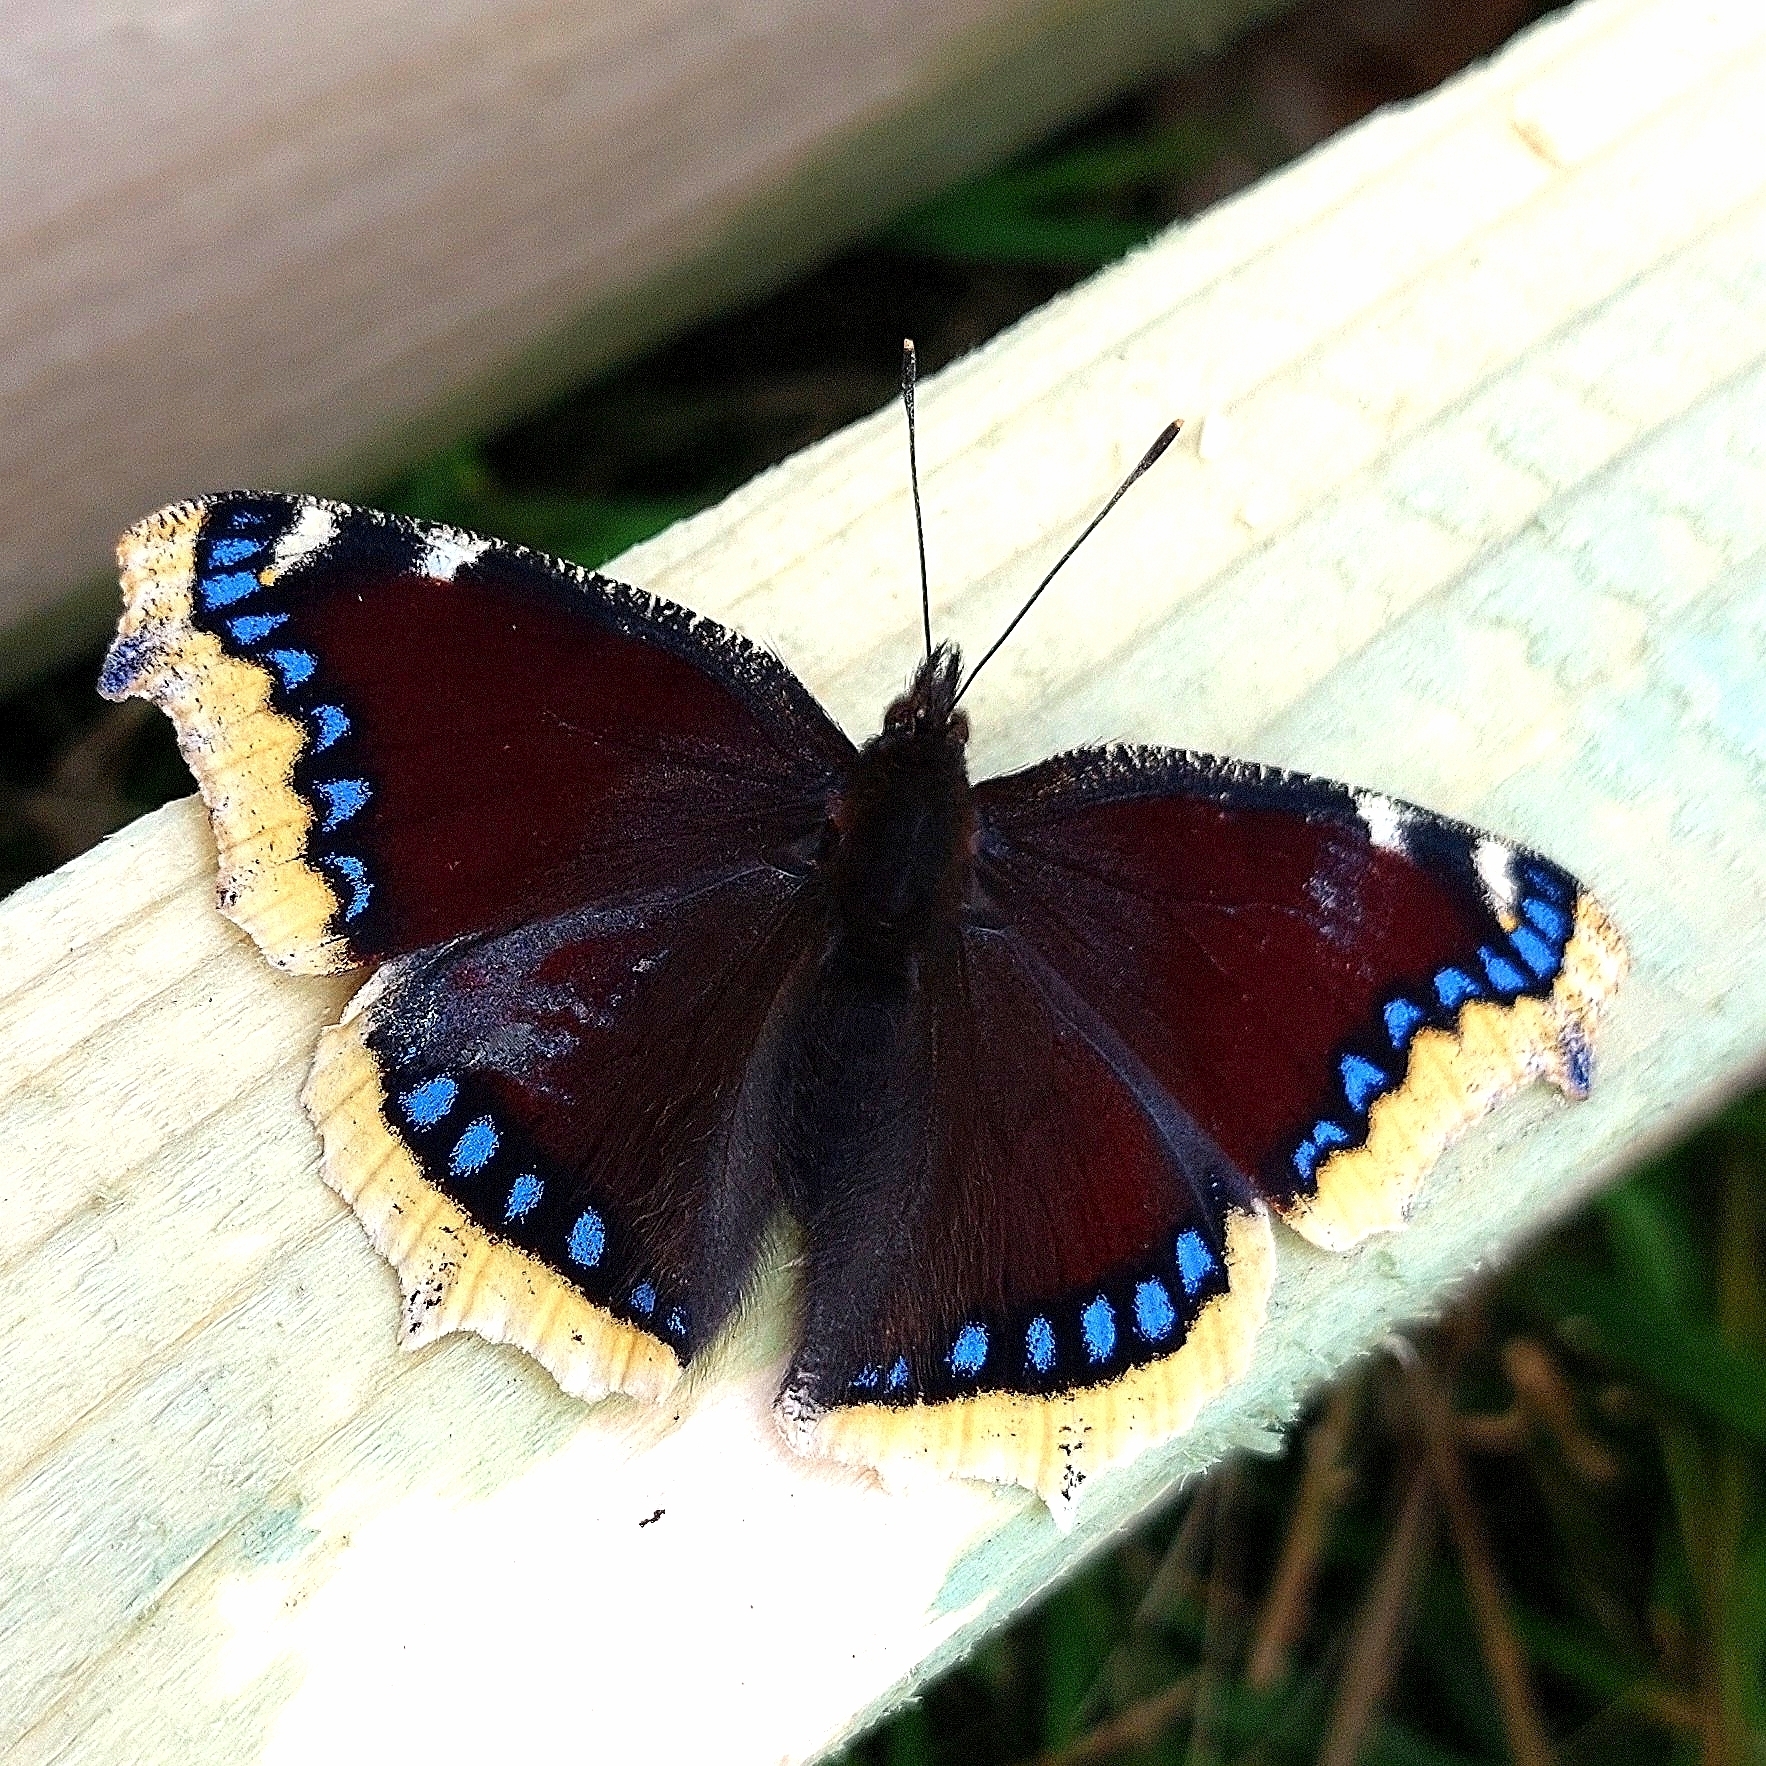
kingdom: Animalia
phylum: Arthropoda
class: Insecta
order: Lepidoptera
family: Nymphalidae
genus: Nymphalis
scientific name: Nymphalis antiopa
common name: Camberwell beauty
